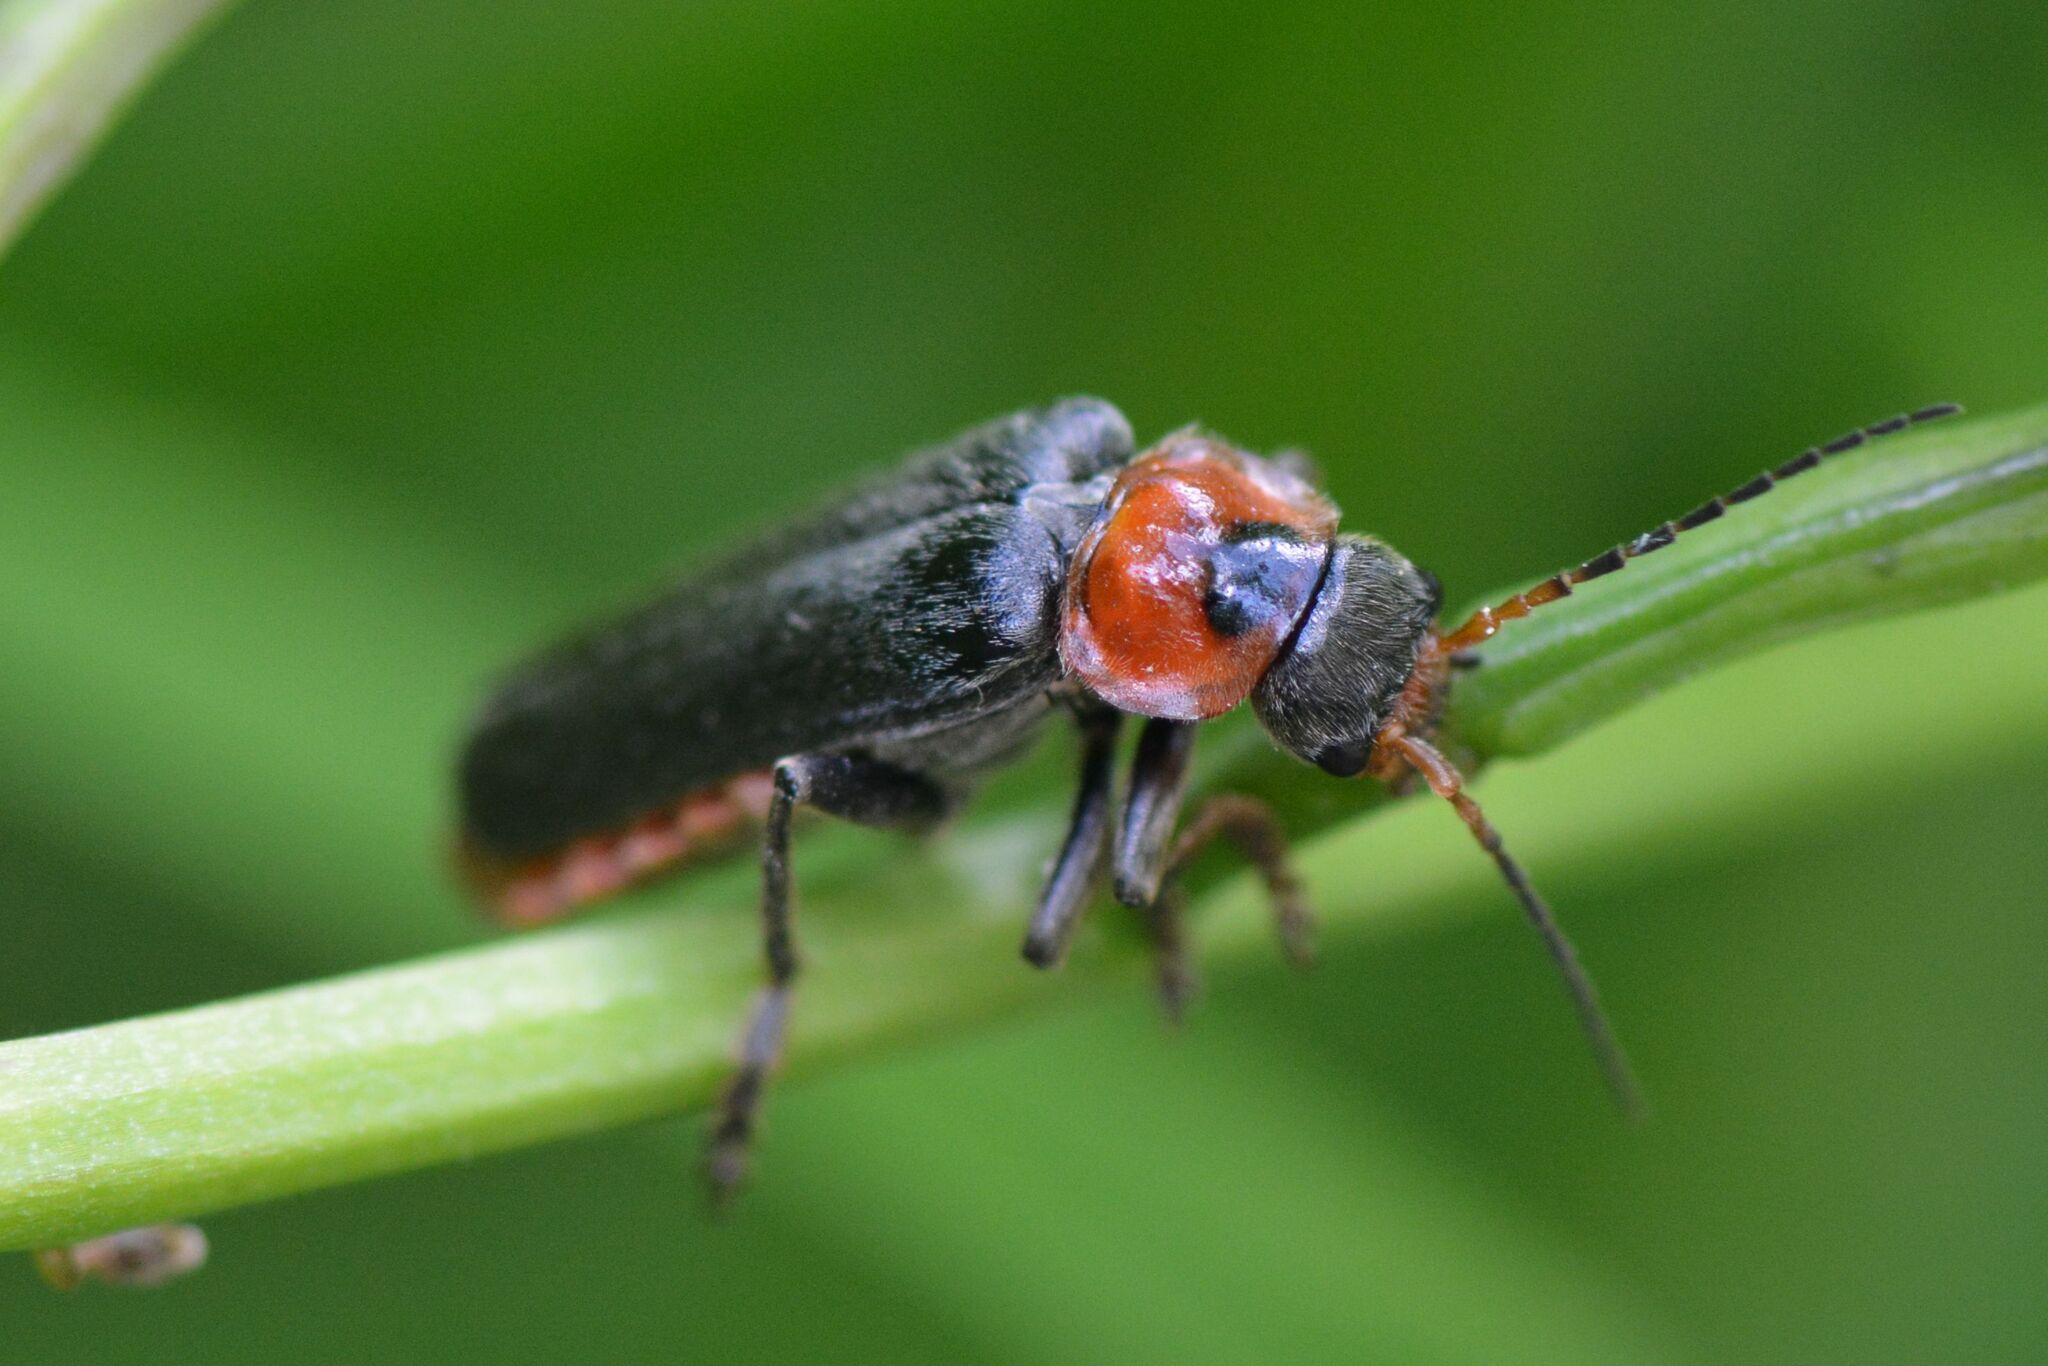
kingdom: Animalia
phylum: Arthropoda
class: Insecta
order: Coleoptera
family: Cantharidae
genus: Cantharis
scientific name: Cantharis fusca
